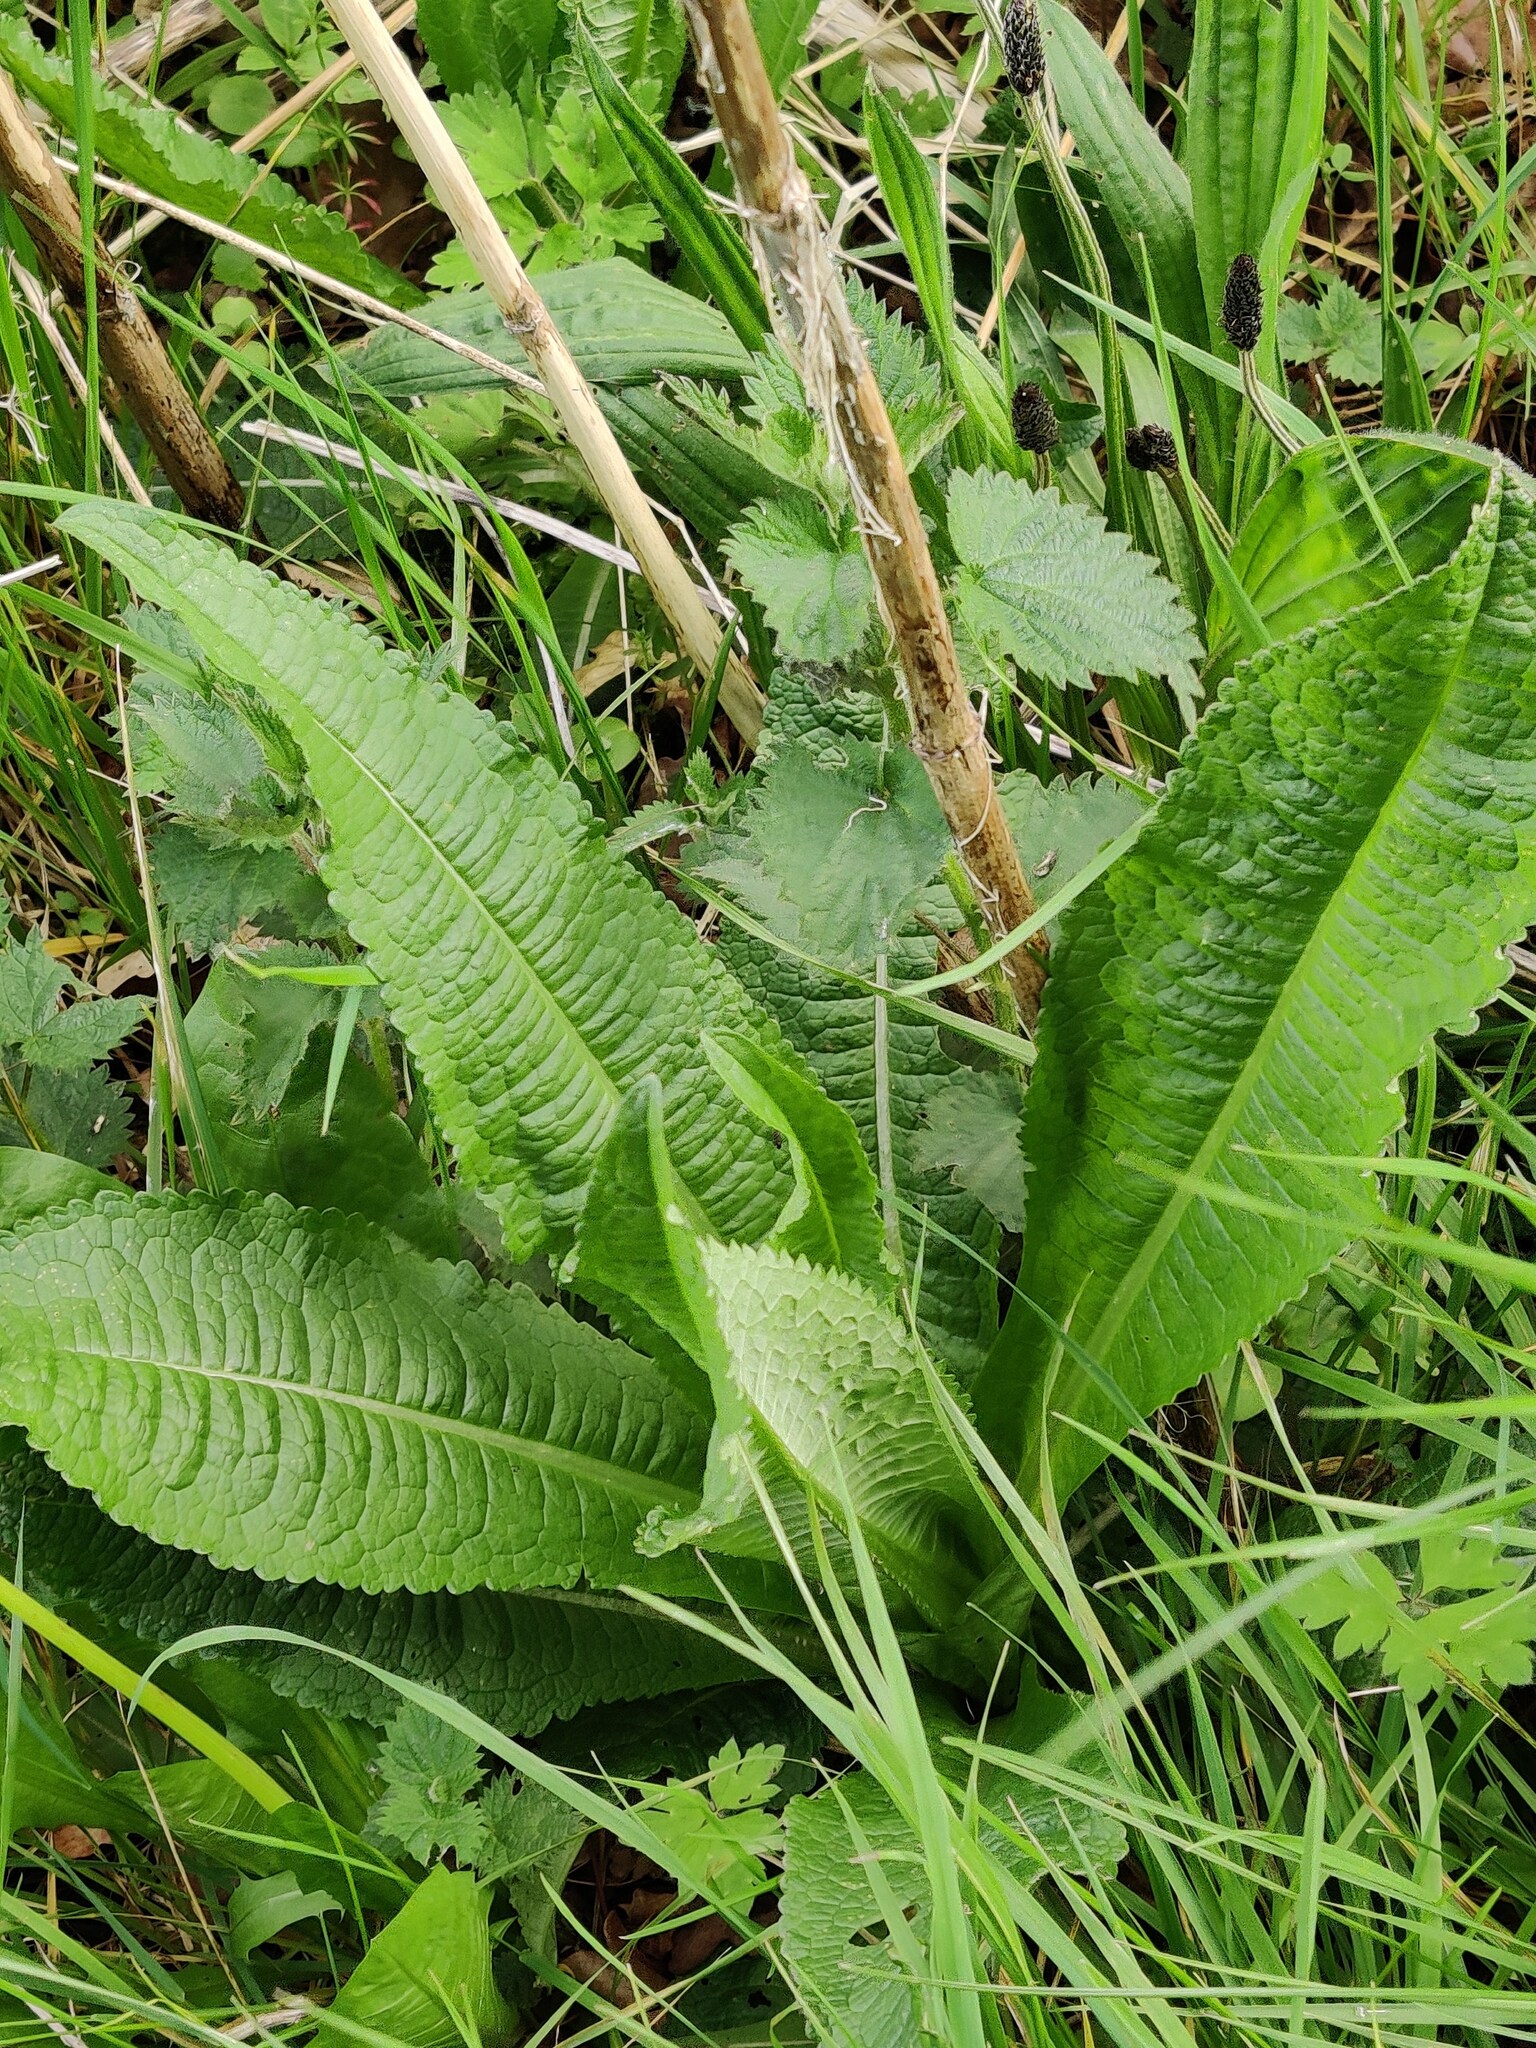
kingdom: Plantae
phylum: Tracheophyta
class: Magnoliopsida
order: Dipsacales
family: Caprifoliaceae
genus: Dipsacus
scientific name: Dipsacus fullonum
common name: Teasel
